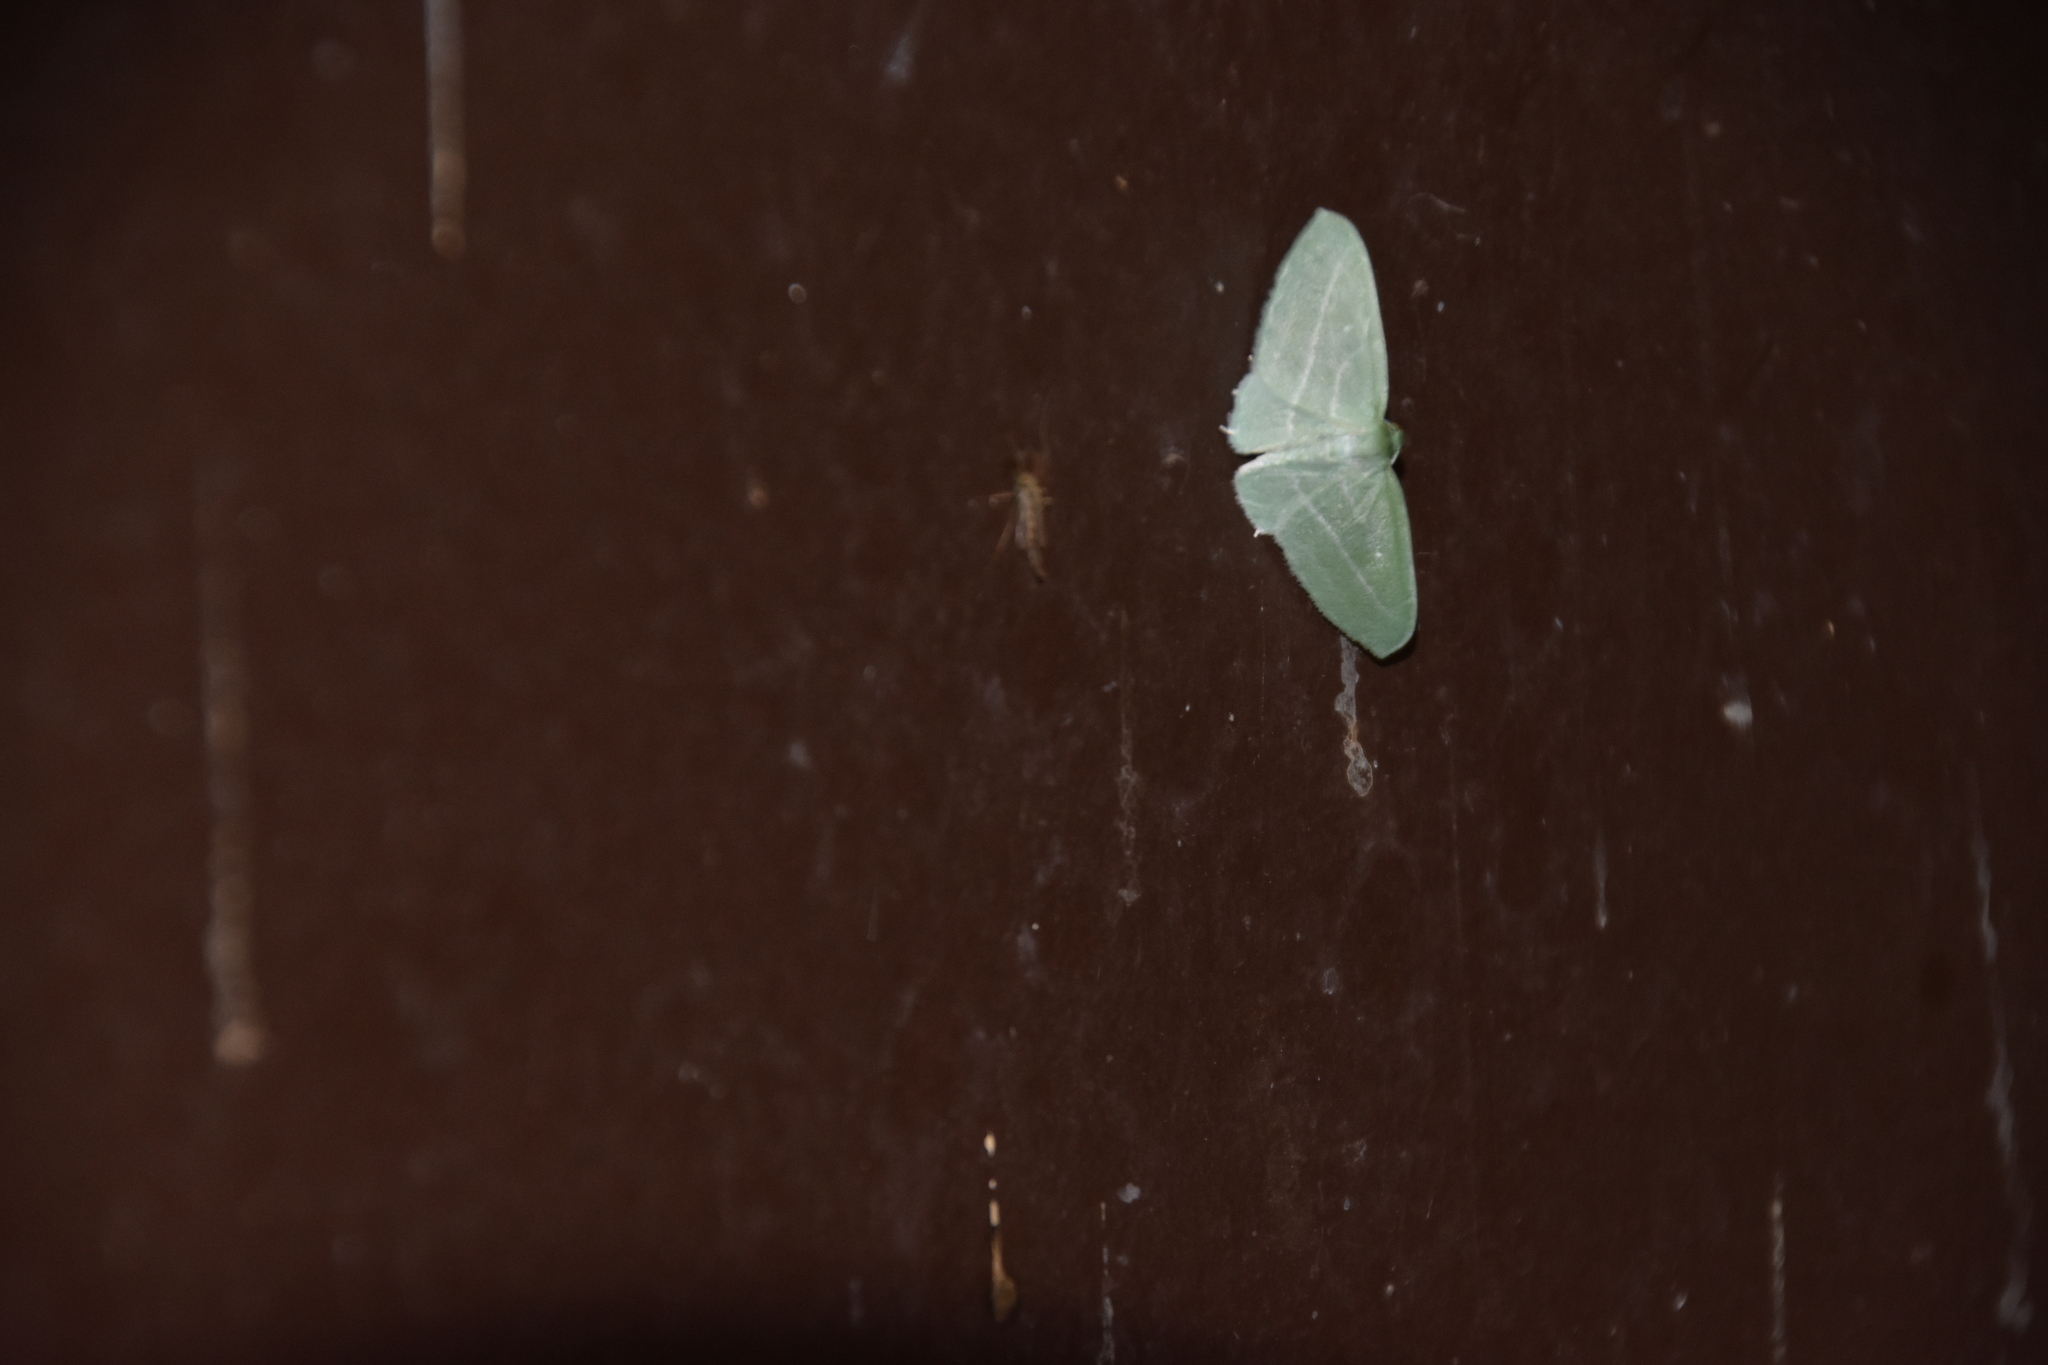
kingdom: Animalia
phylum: Arthropoda
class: Insecta
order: Lepidoptera
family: Geometridae
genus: Dyspteris
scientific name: Dyspteris abortivaria
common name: Bad-wing
